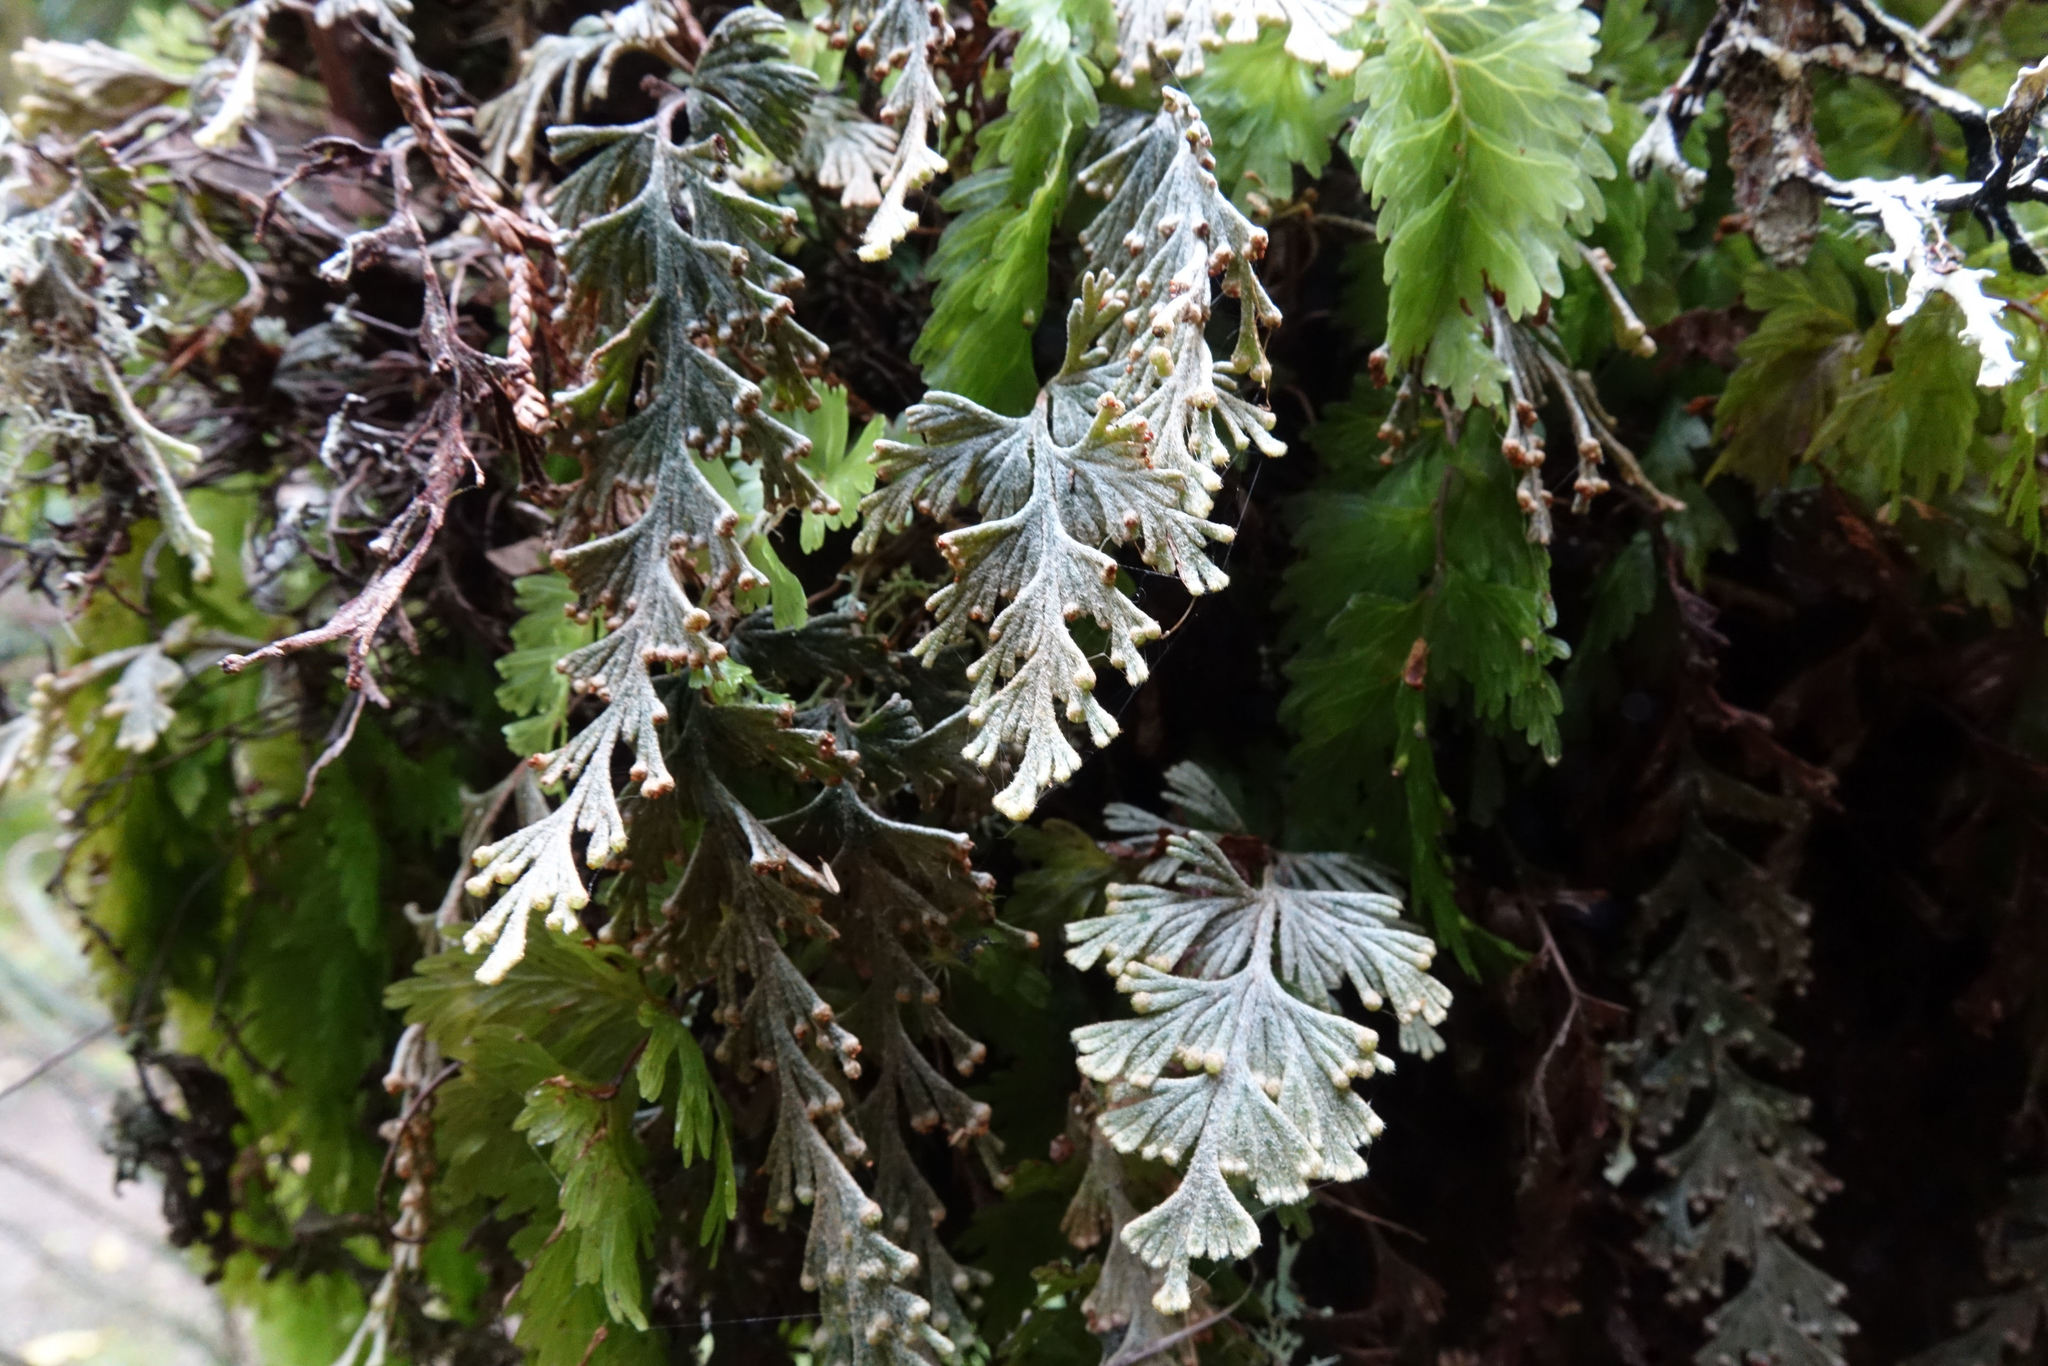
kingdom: Plantae
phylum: Tracheophyta
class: Polypodiopsida
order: Hymenophyllales
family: Hymenophyllaceae
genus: Hymenophyllum
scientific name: Hymenophyllum malingii
